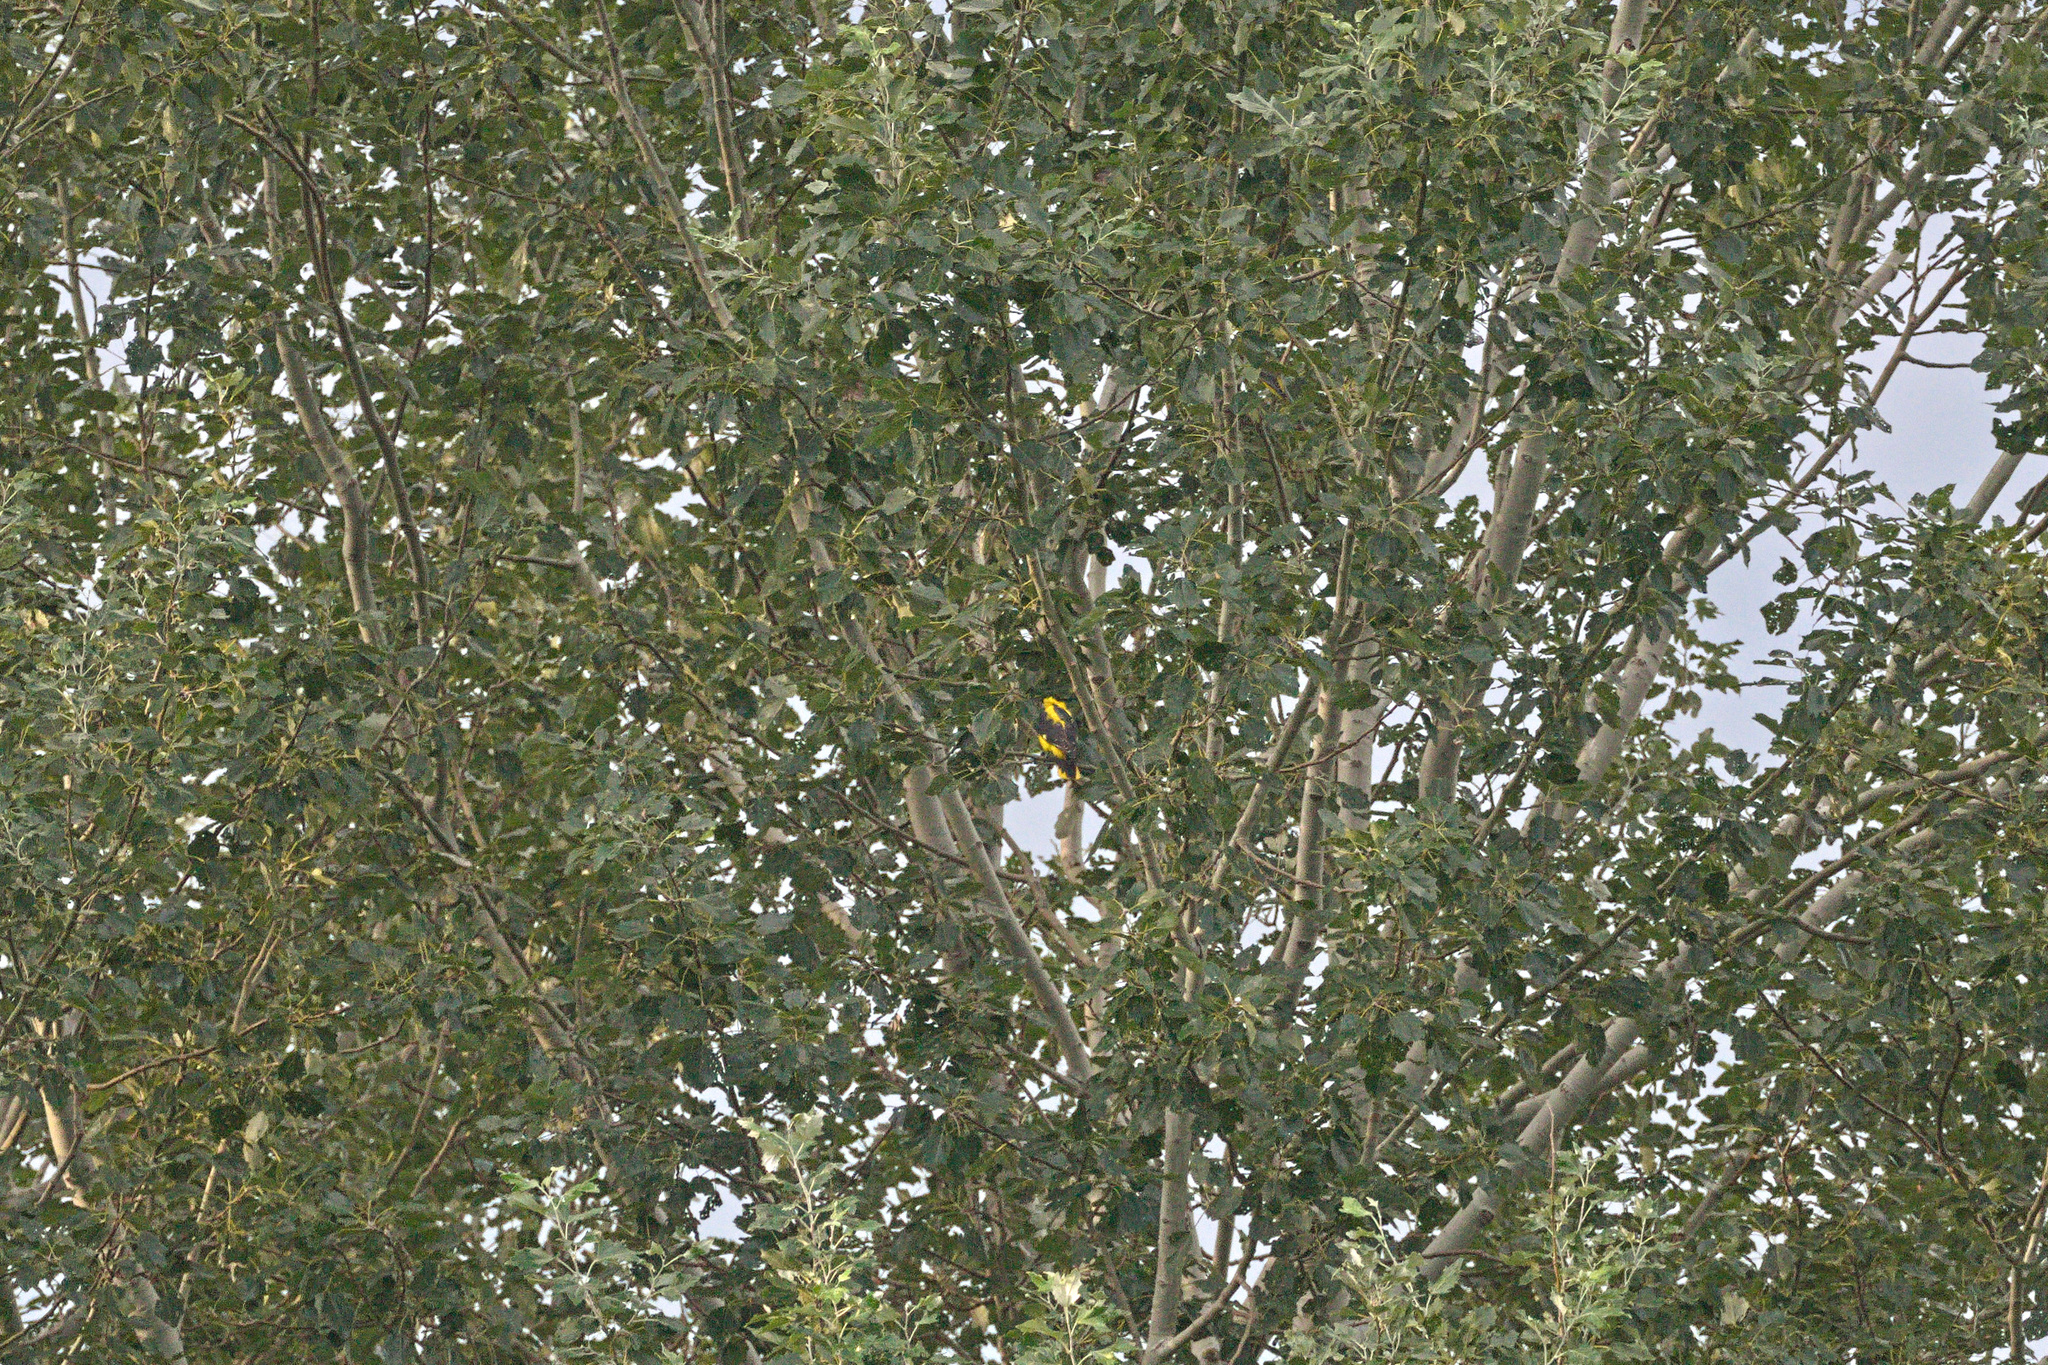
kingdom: Animalia
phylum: Chordata
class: Aves
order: Passeriformes
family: Oriolidae
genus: Oriolus
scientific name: Oriolus oriolus
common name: Eurasian golden oriole
